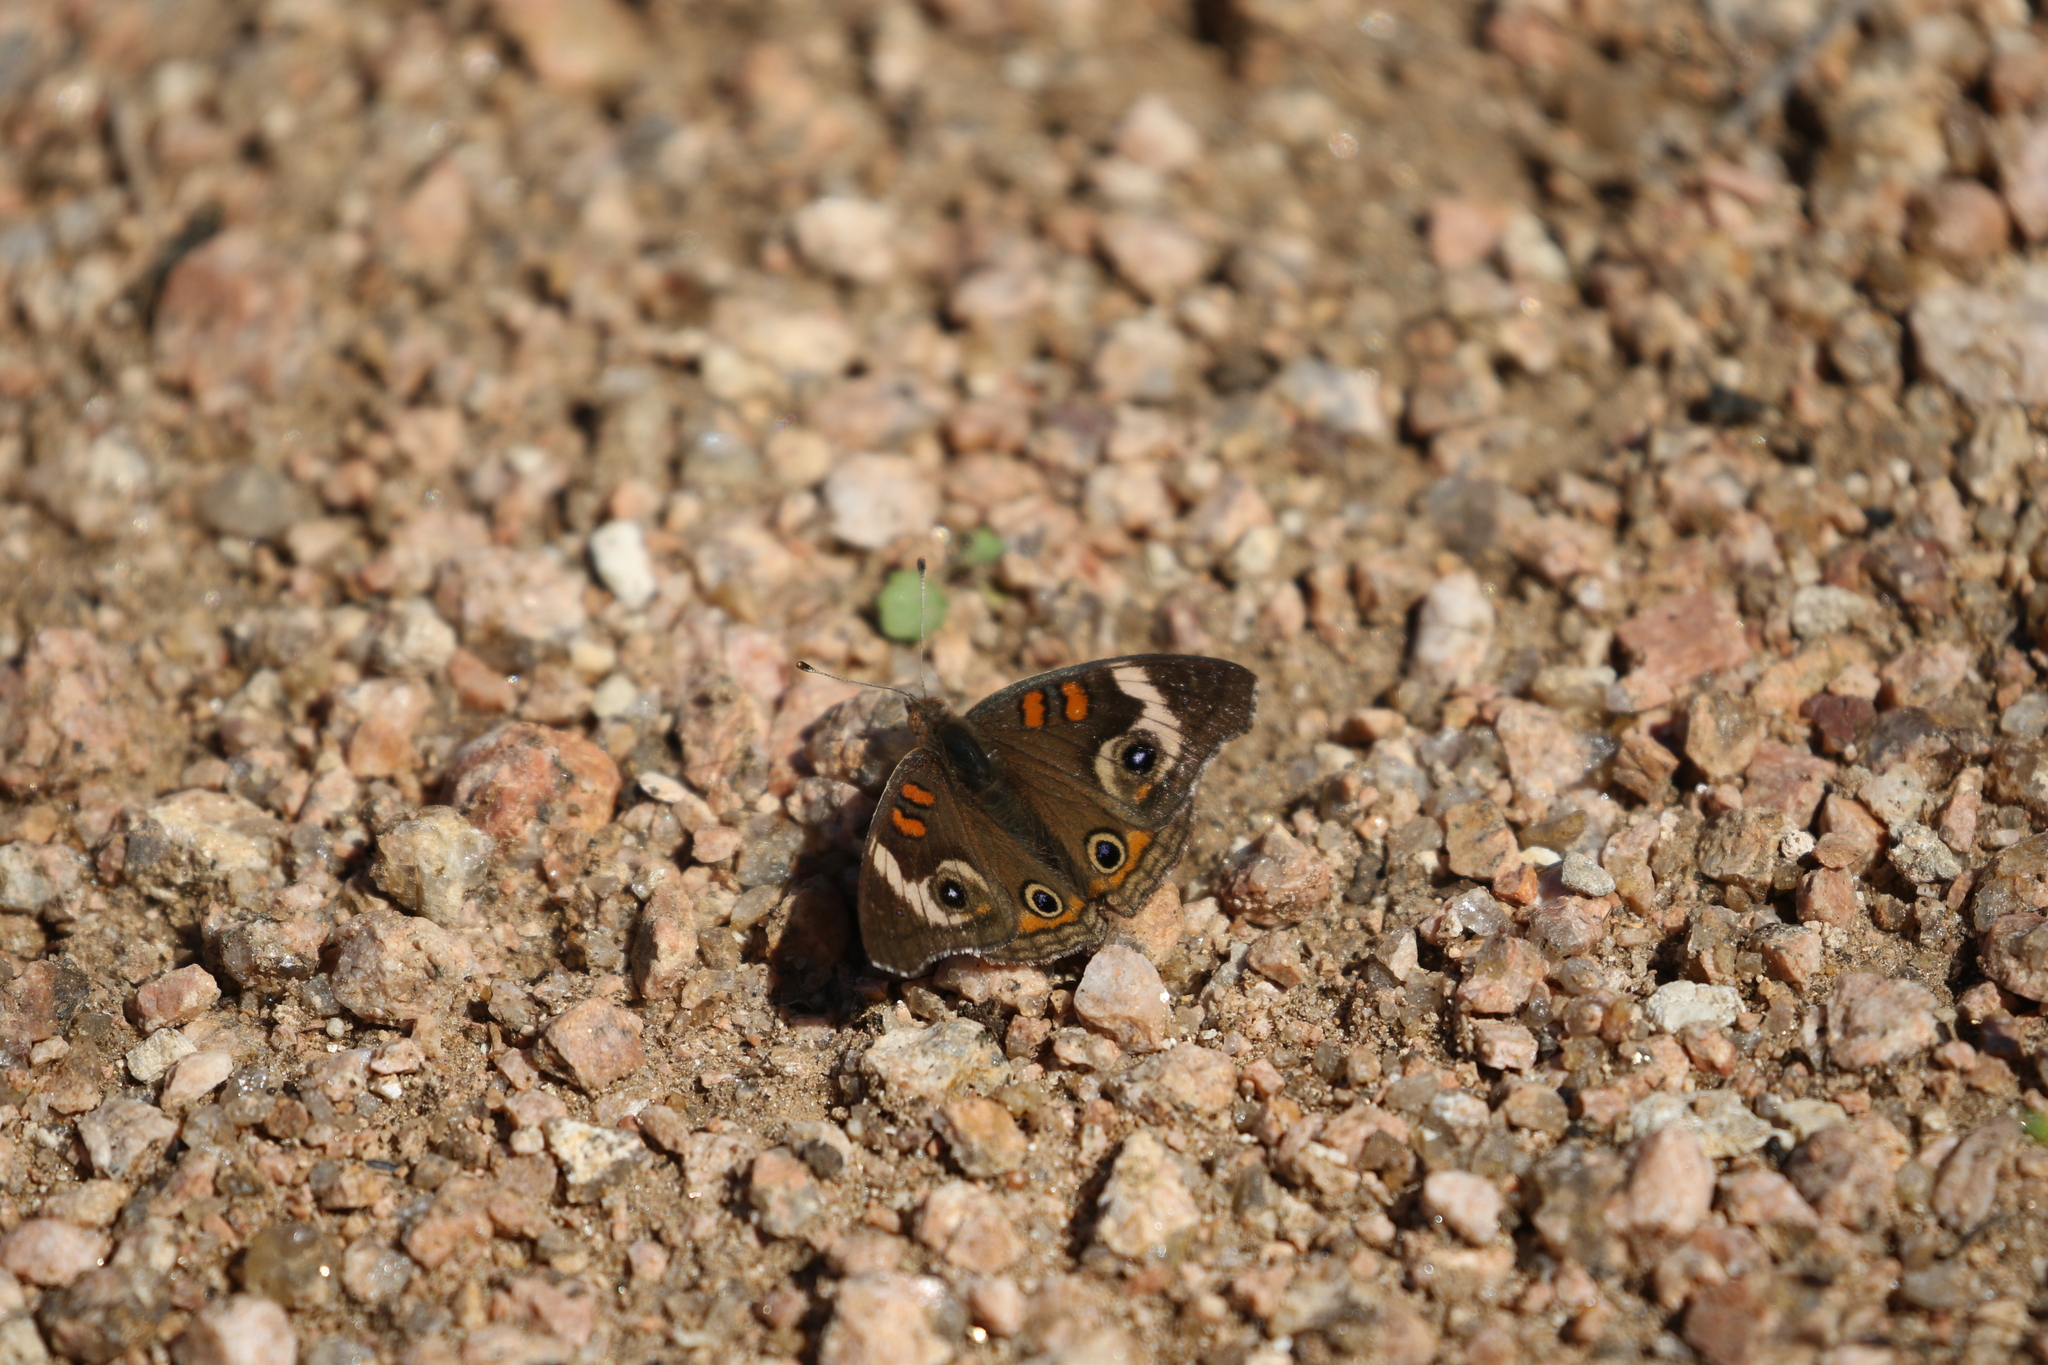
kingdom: Animalia
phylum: Arthropoda
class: Insecta
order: Lepidoptera
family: Nymphalidae
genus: Junonia
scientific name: Junonia coenia
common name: Common buckeye
